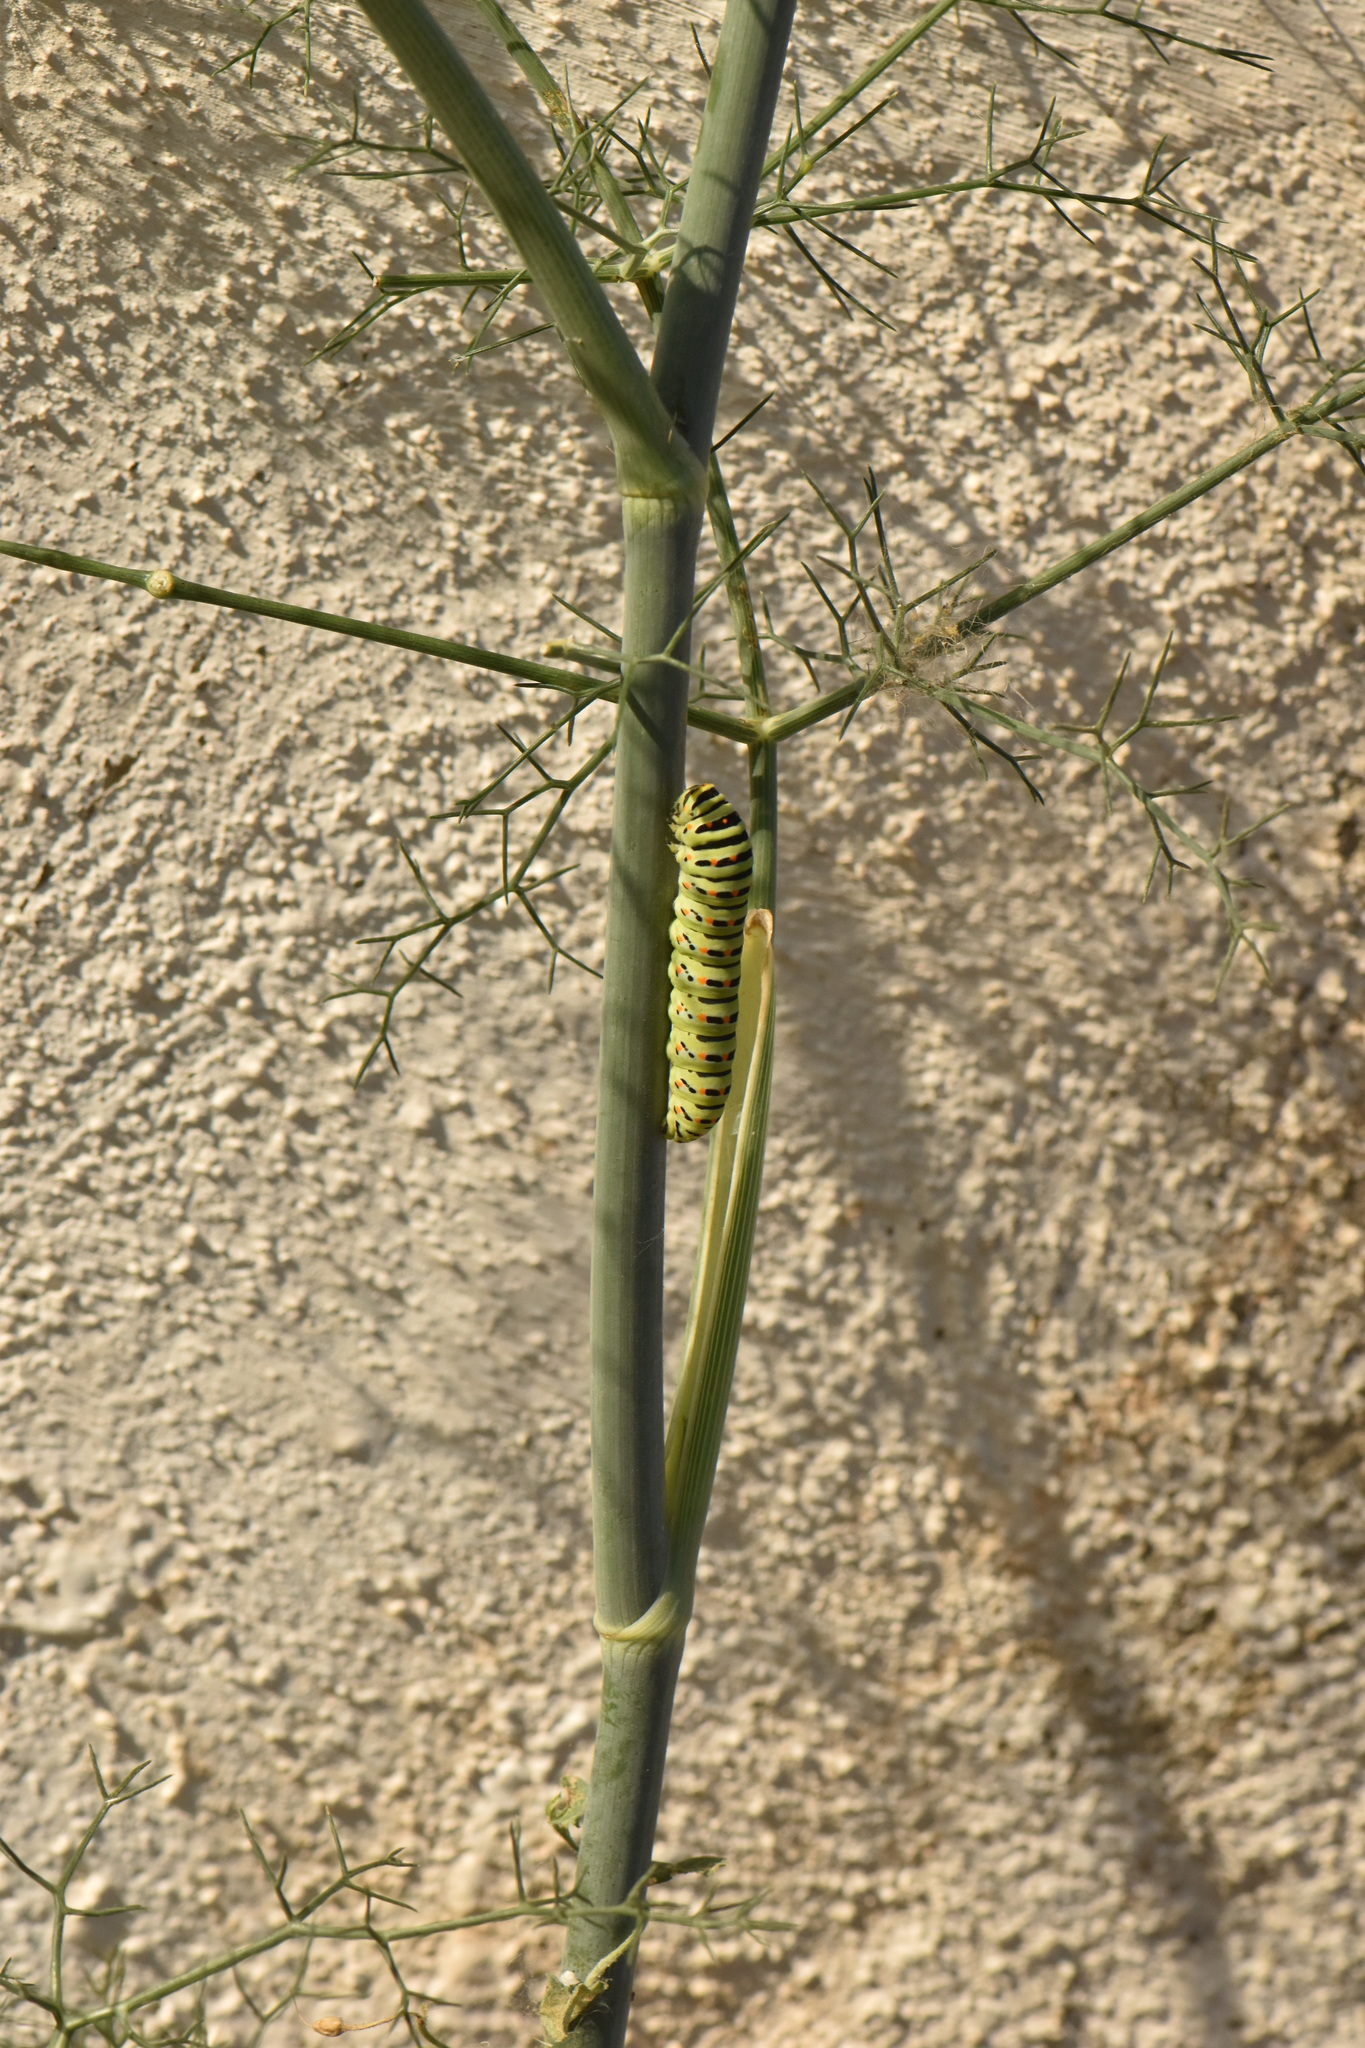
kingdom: Animalia
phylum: Arthropoda
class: Insecta
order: Lepidoptera
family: Papilionidae
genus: Papilio
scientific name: Papilio machaon
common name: Swallowtail
